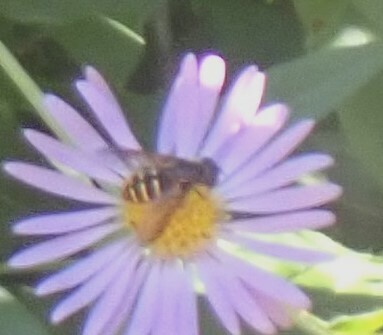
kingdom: Animalia
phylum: Arthropoda
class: Insecta
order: Diptera
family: Syrphidae
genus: Sericomyia
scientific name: Sericomyia chalcopyga
